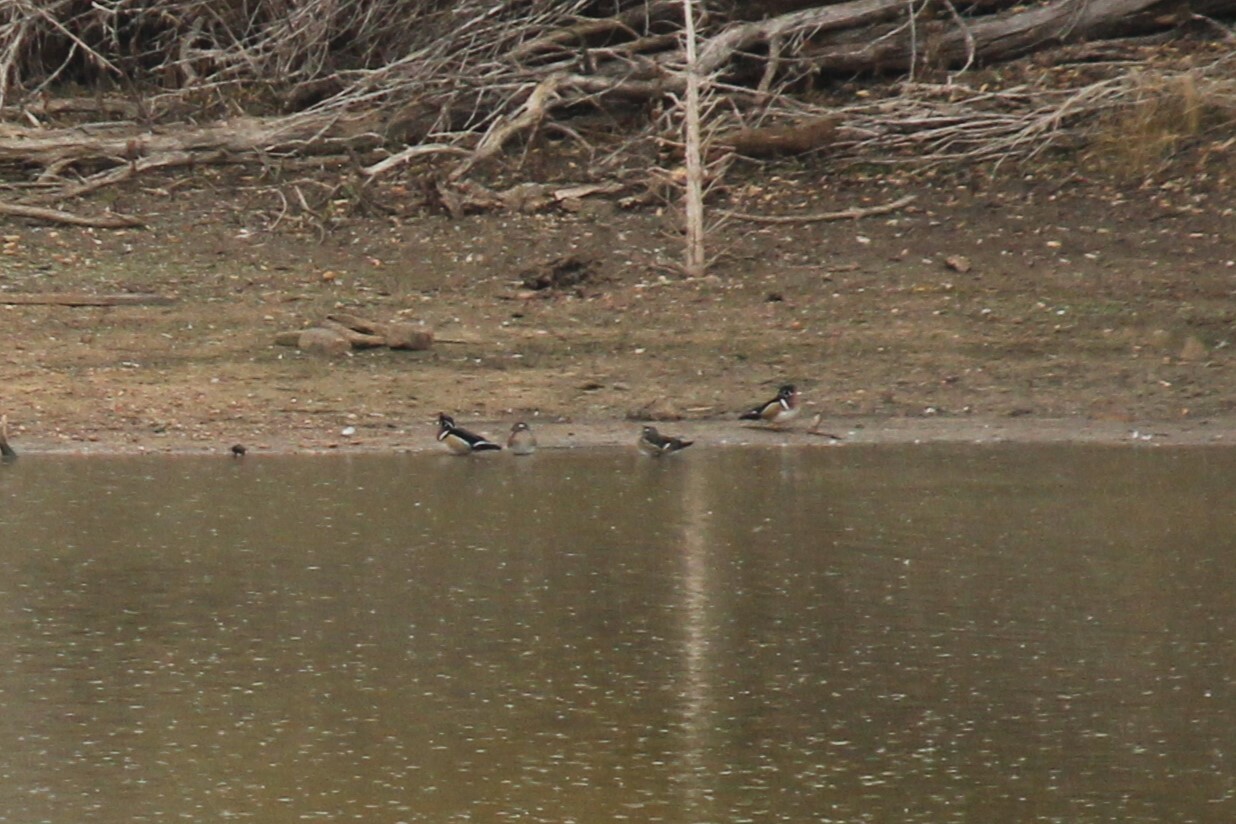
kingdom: Animalia
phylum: Chordata
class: Aves
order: Anseriformes
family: Anatidae
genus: Aix
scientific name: Aix sponsa
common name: Wood duck
